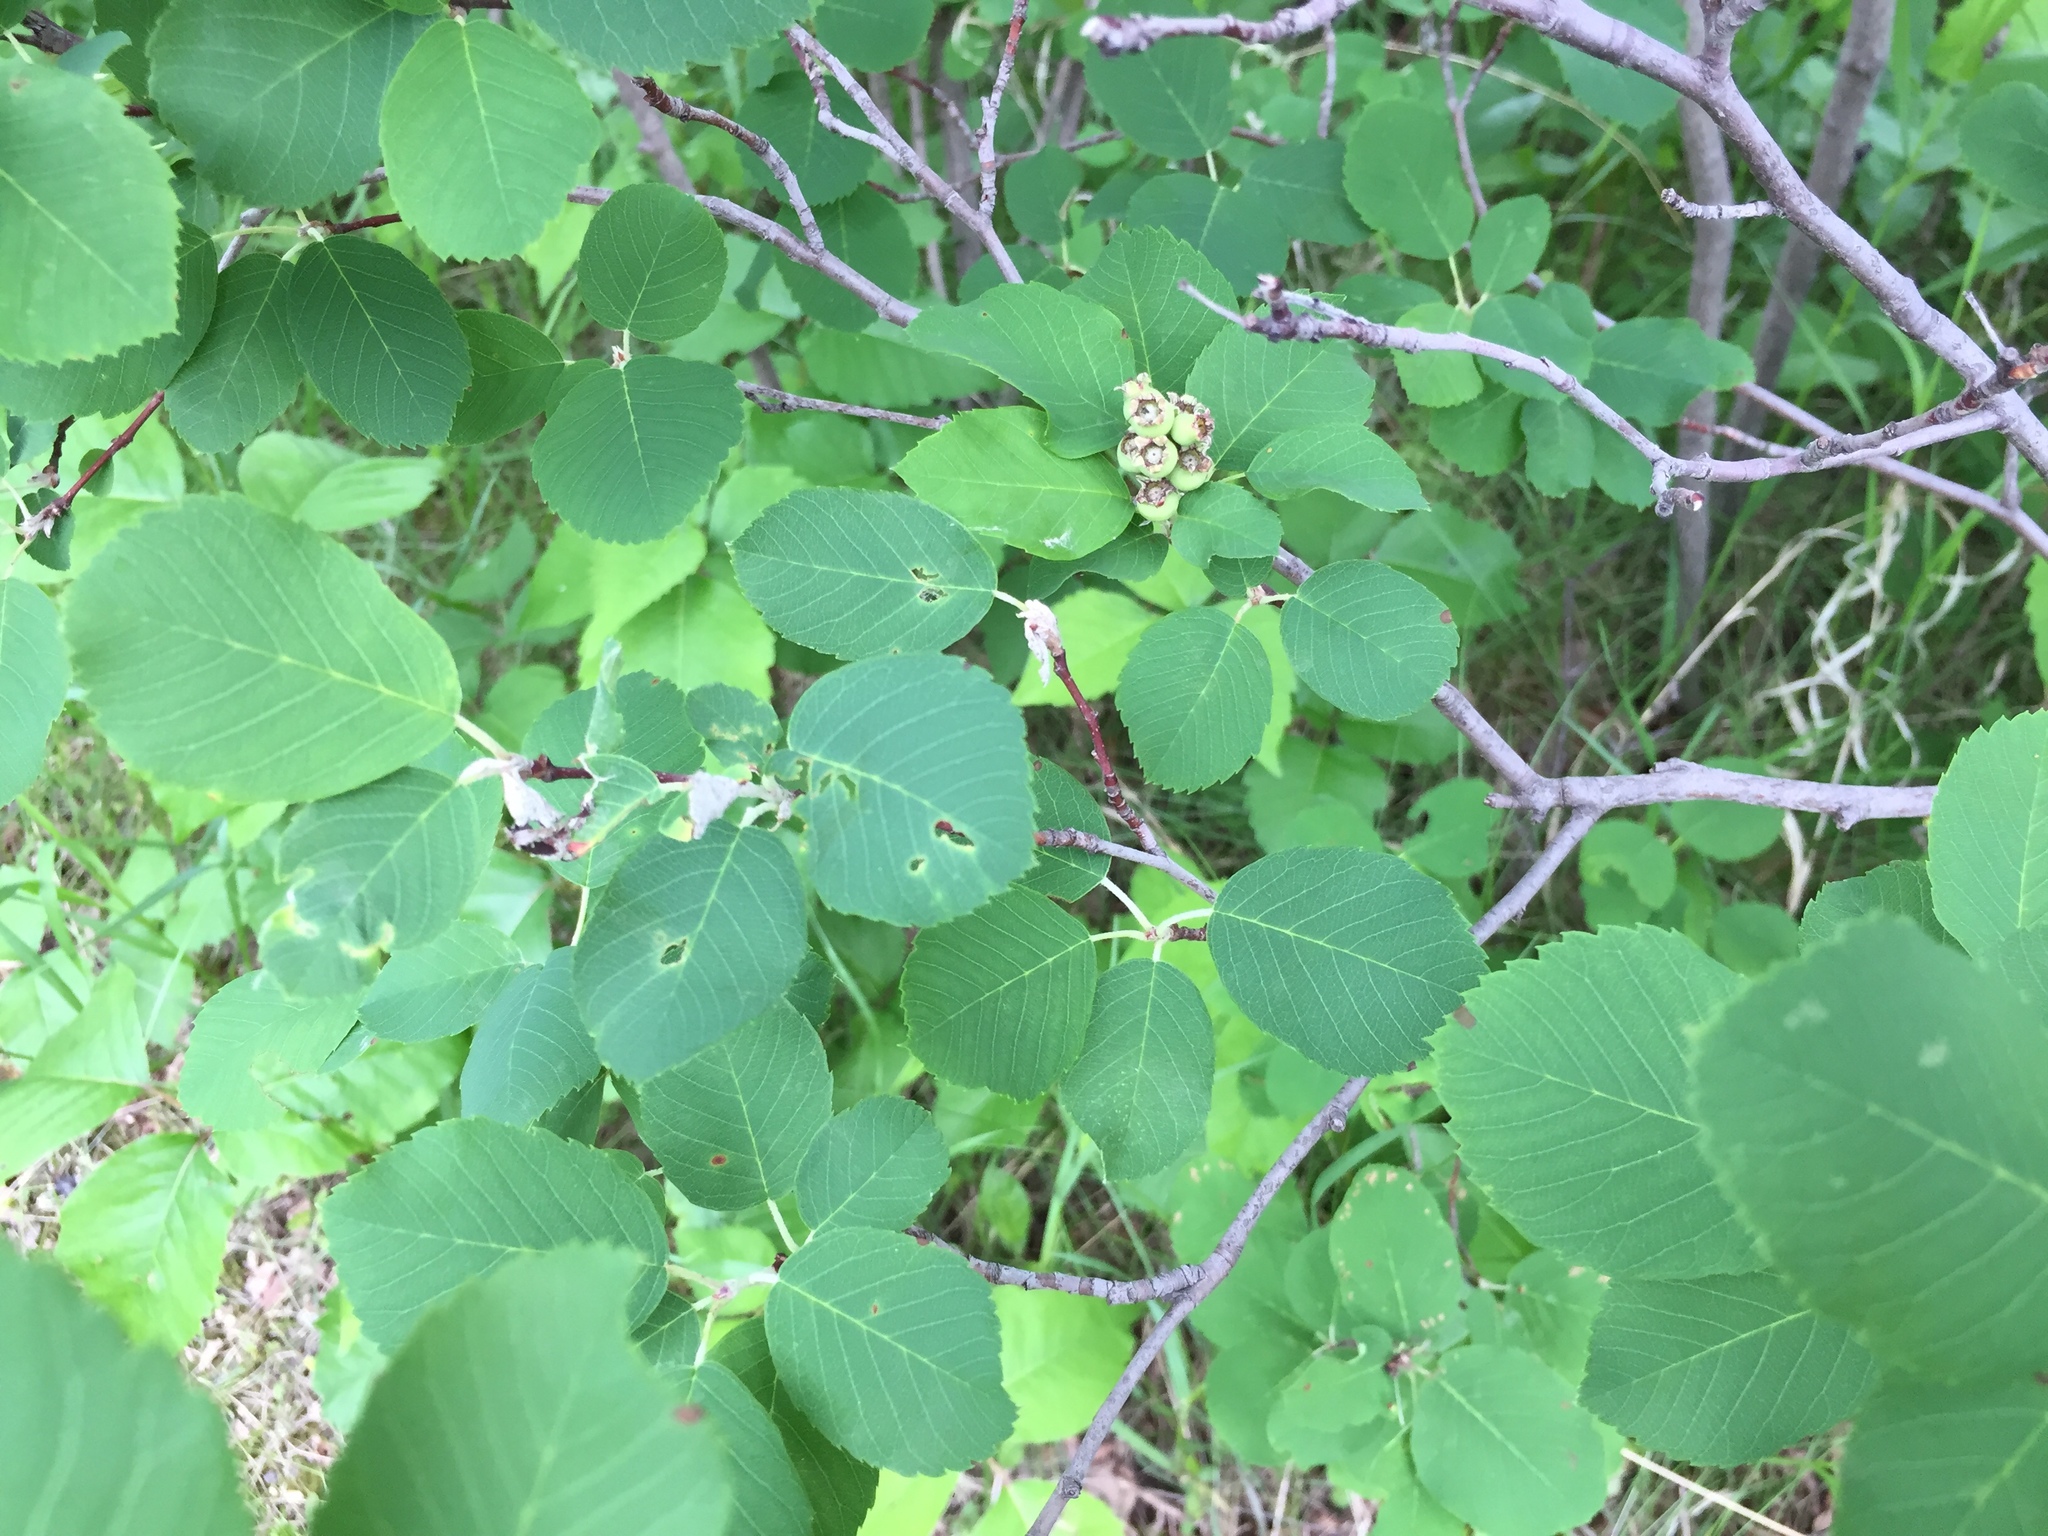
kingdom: Plantae
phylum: Tracheophyta
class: Magnoliopsida
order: Rosales
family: Rosaceae
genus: Amelanchier
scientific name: Amelanchier alnifolia
